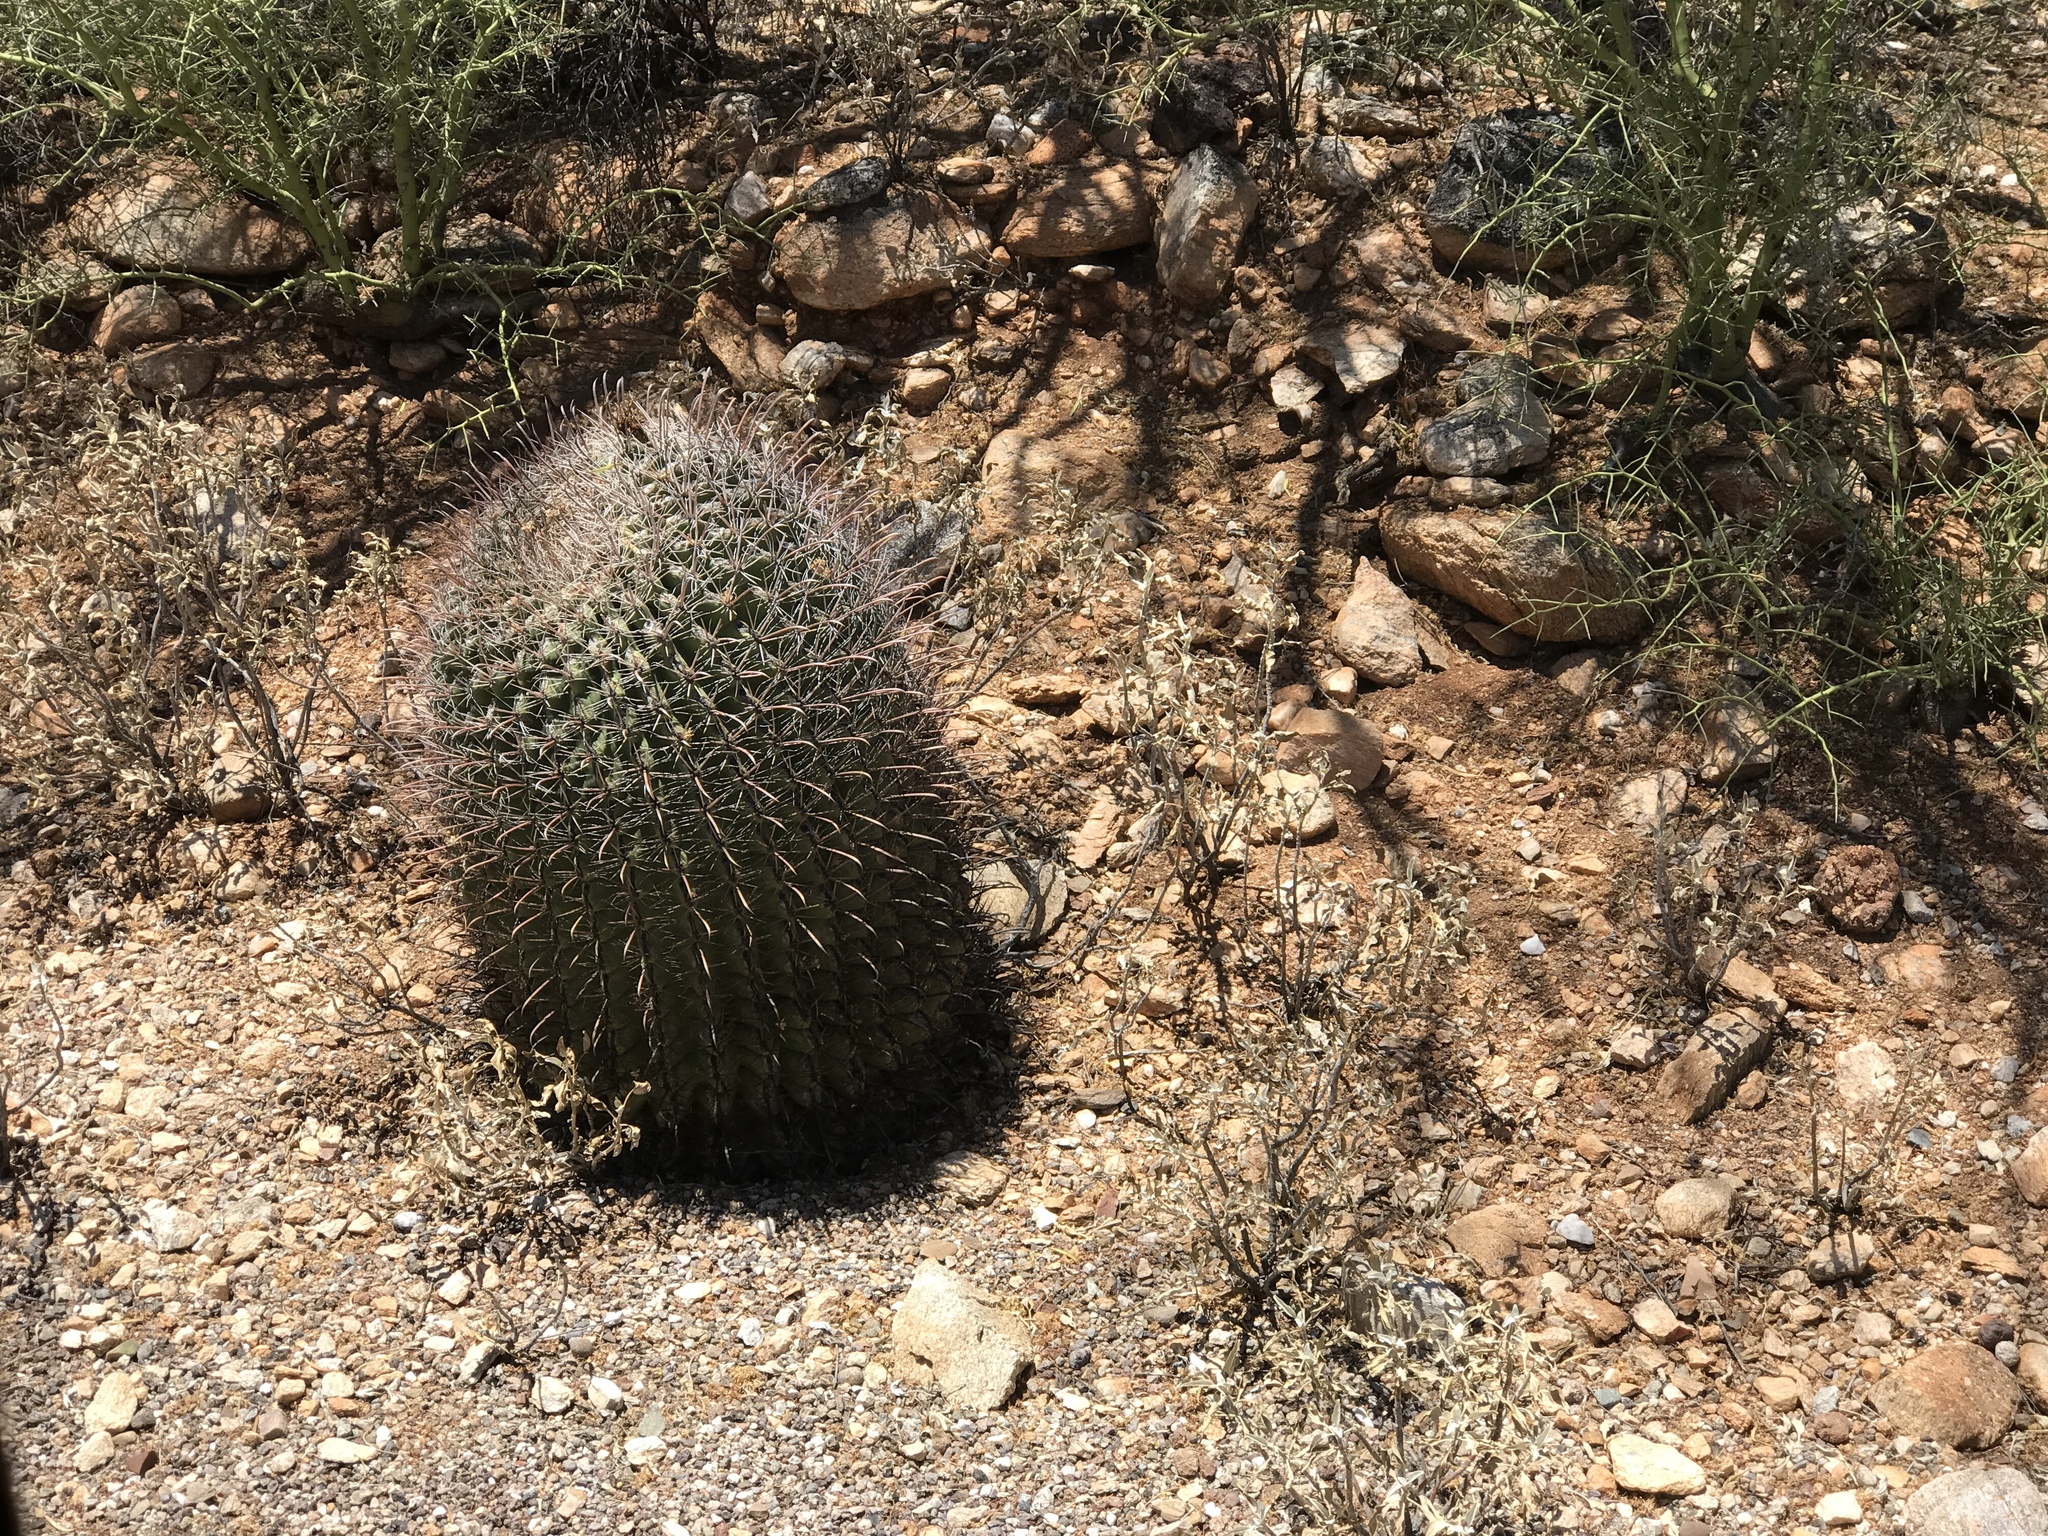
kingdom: Plantae
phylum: Tracheophyta
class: Magnoliopsida
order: Caryophyllales
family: Cactaceae
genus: Ferocactus
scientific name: Ferocactus wislizeni
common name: Candy barrel cactus
